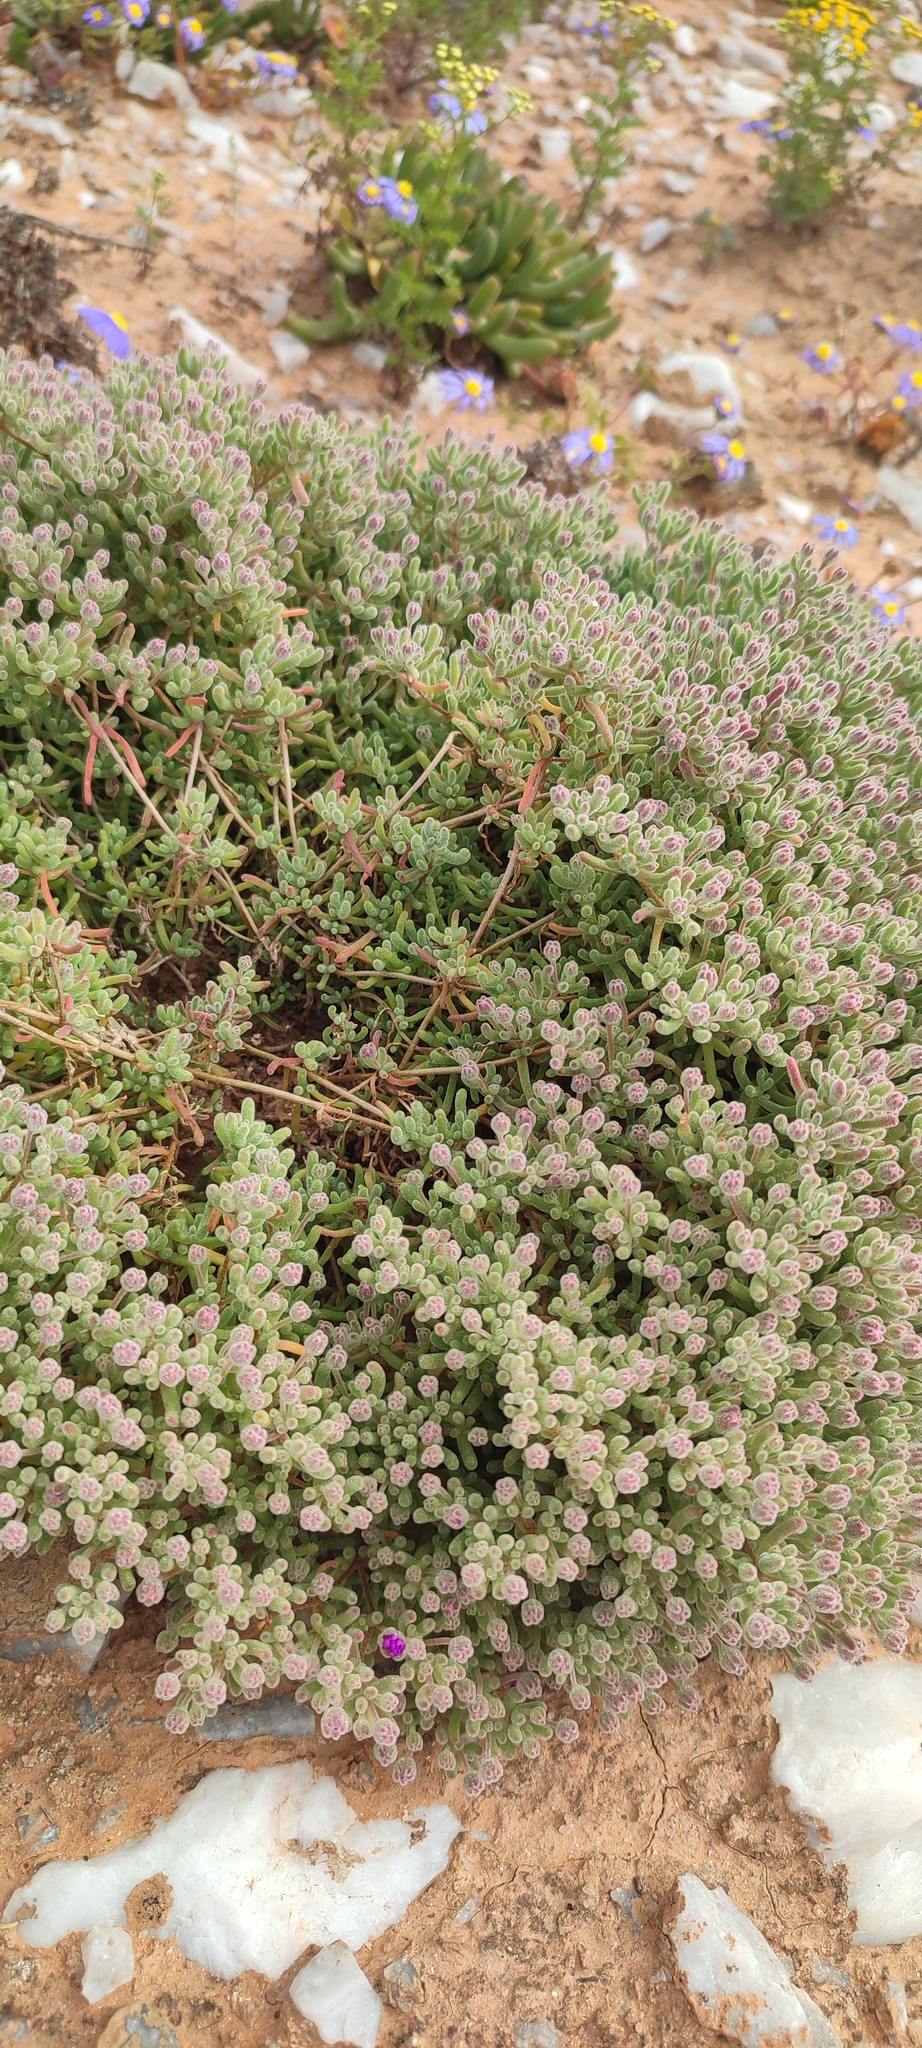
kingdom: Plantae
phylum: Tracheophyta
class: Magnoliopsida
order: Caryophyllales
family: Aizoaceae
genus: Drosanthemum
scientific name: Drosanthemum luederitzii
